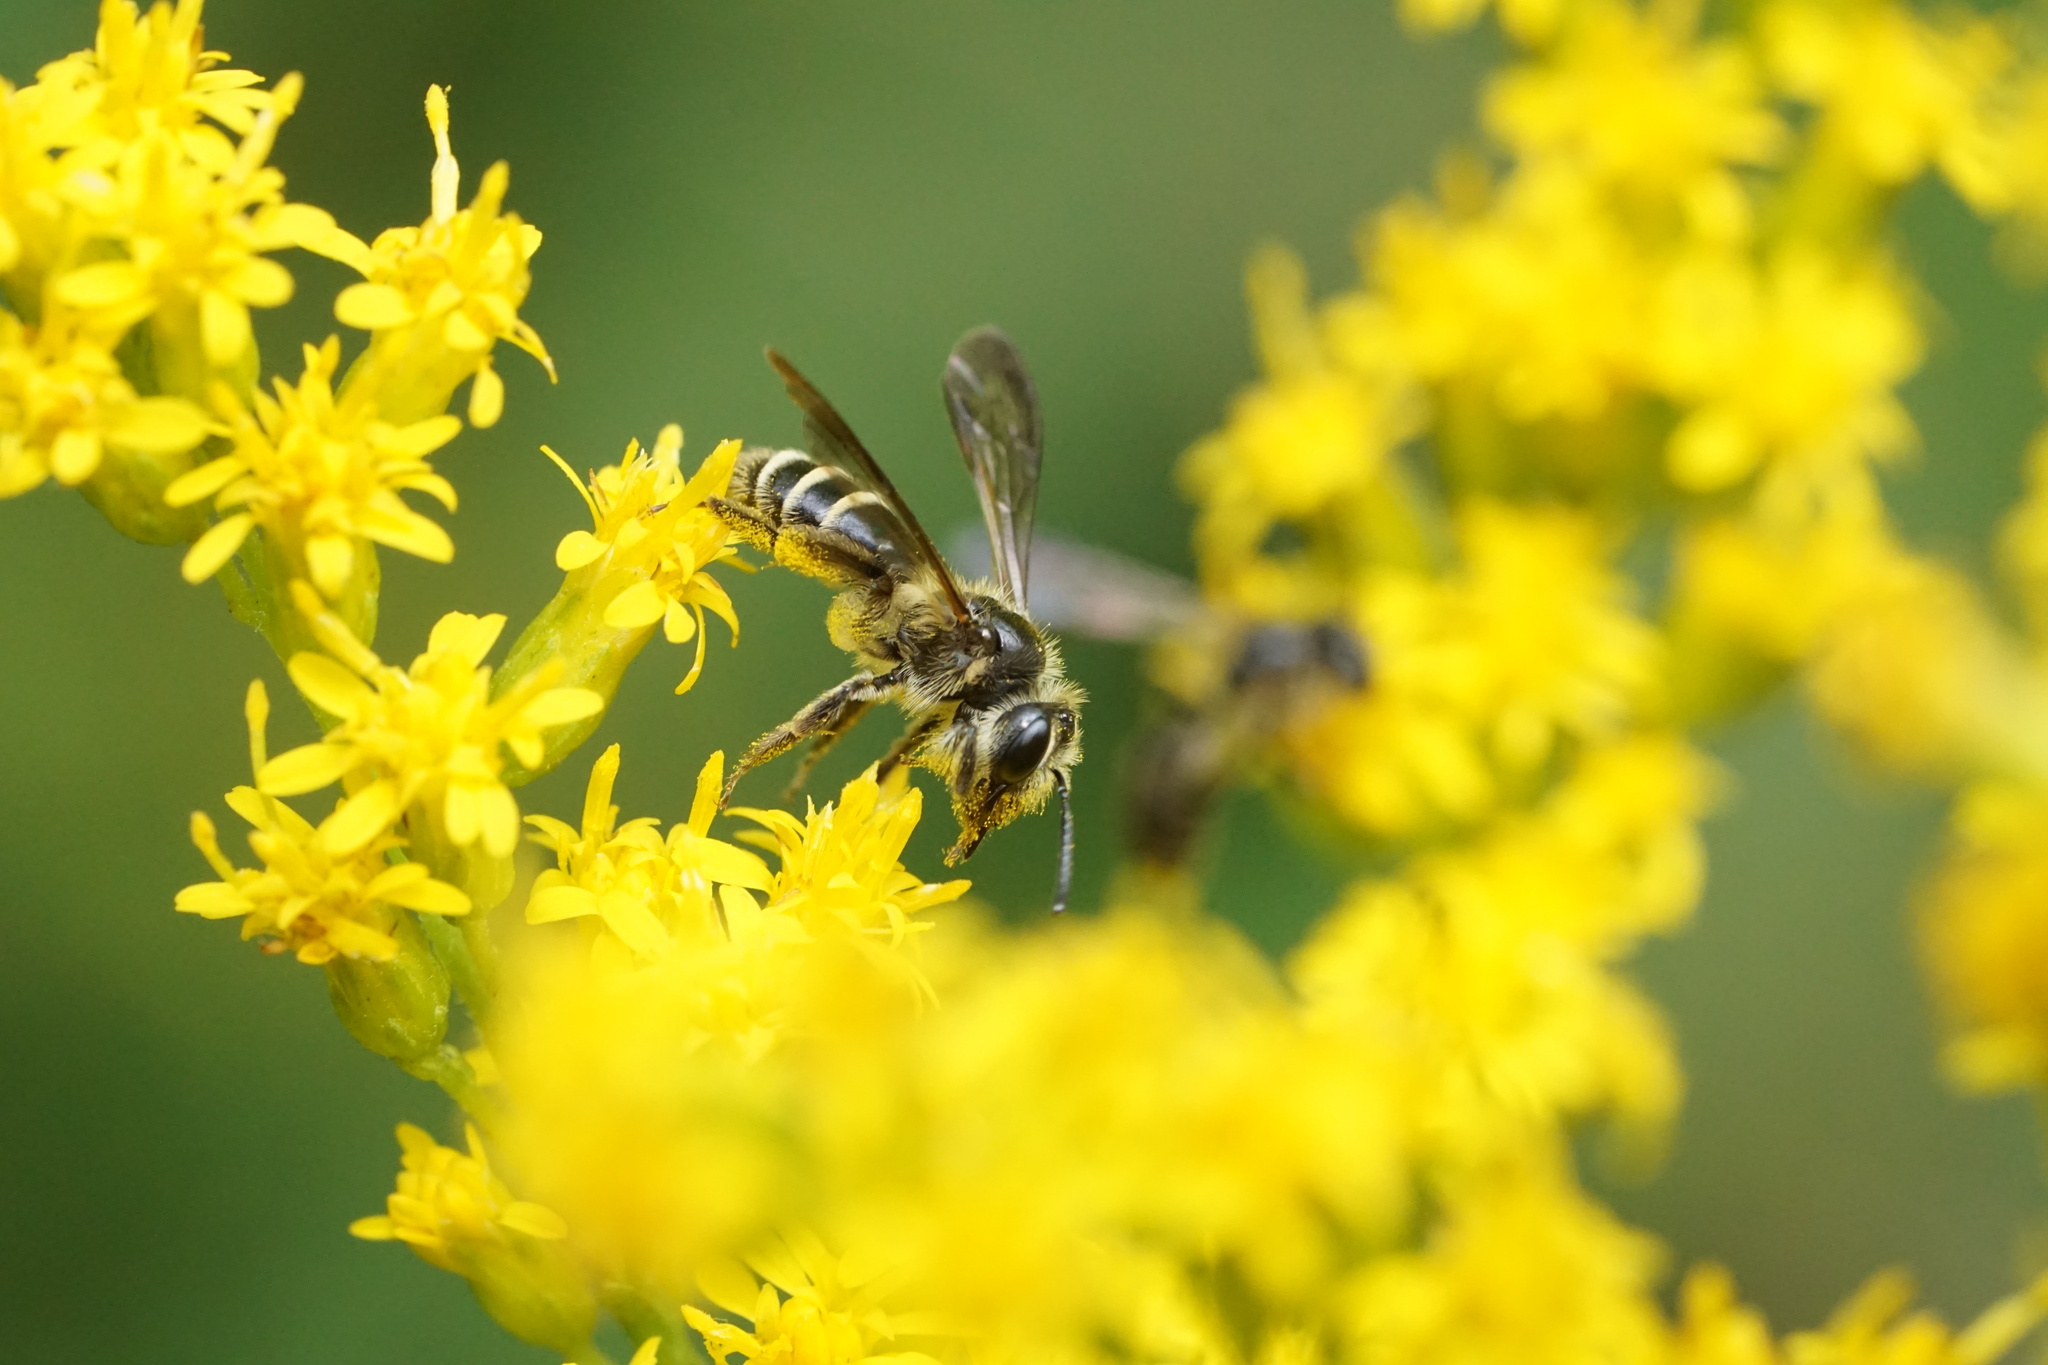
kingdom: Animalia
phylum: Arthropoda
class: Insecta
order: Hymenoptera
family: Andrenidae
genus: Andrena
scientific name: Andrena nubecula
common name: Cloudy-winged mining bee
